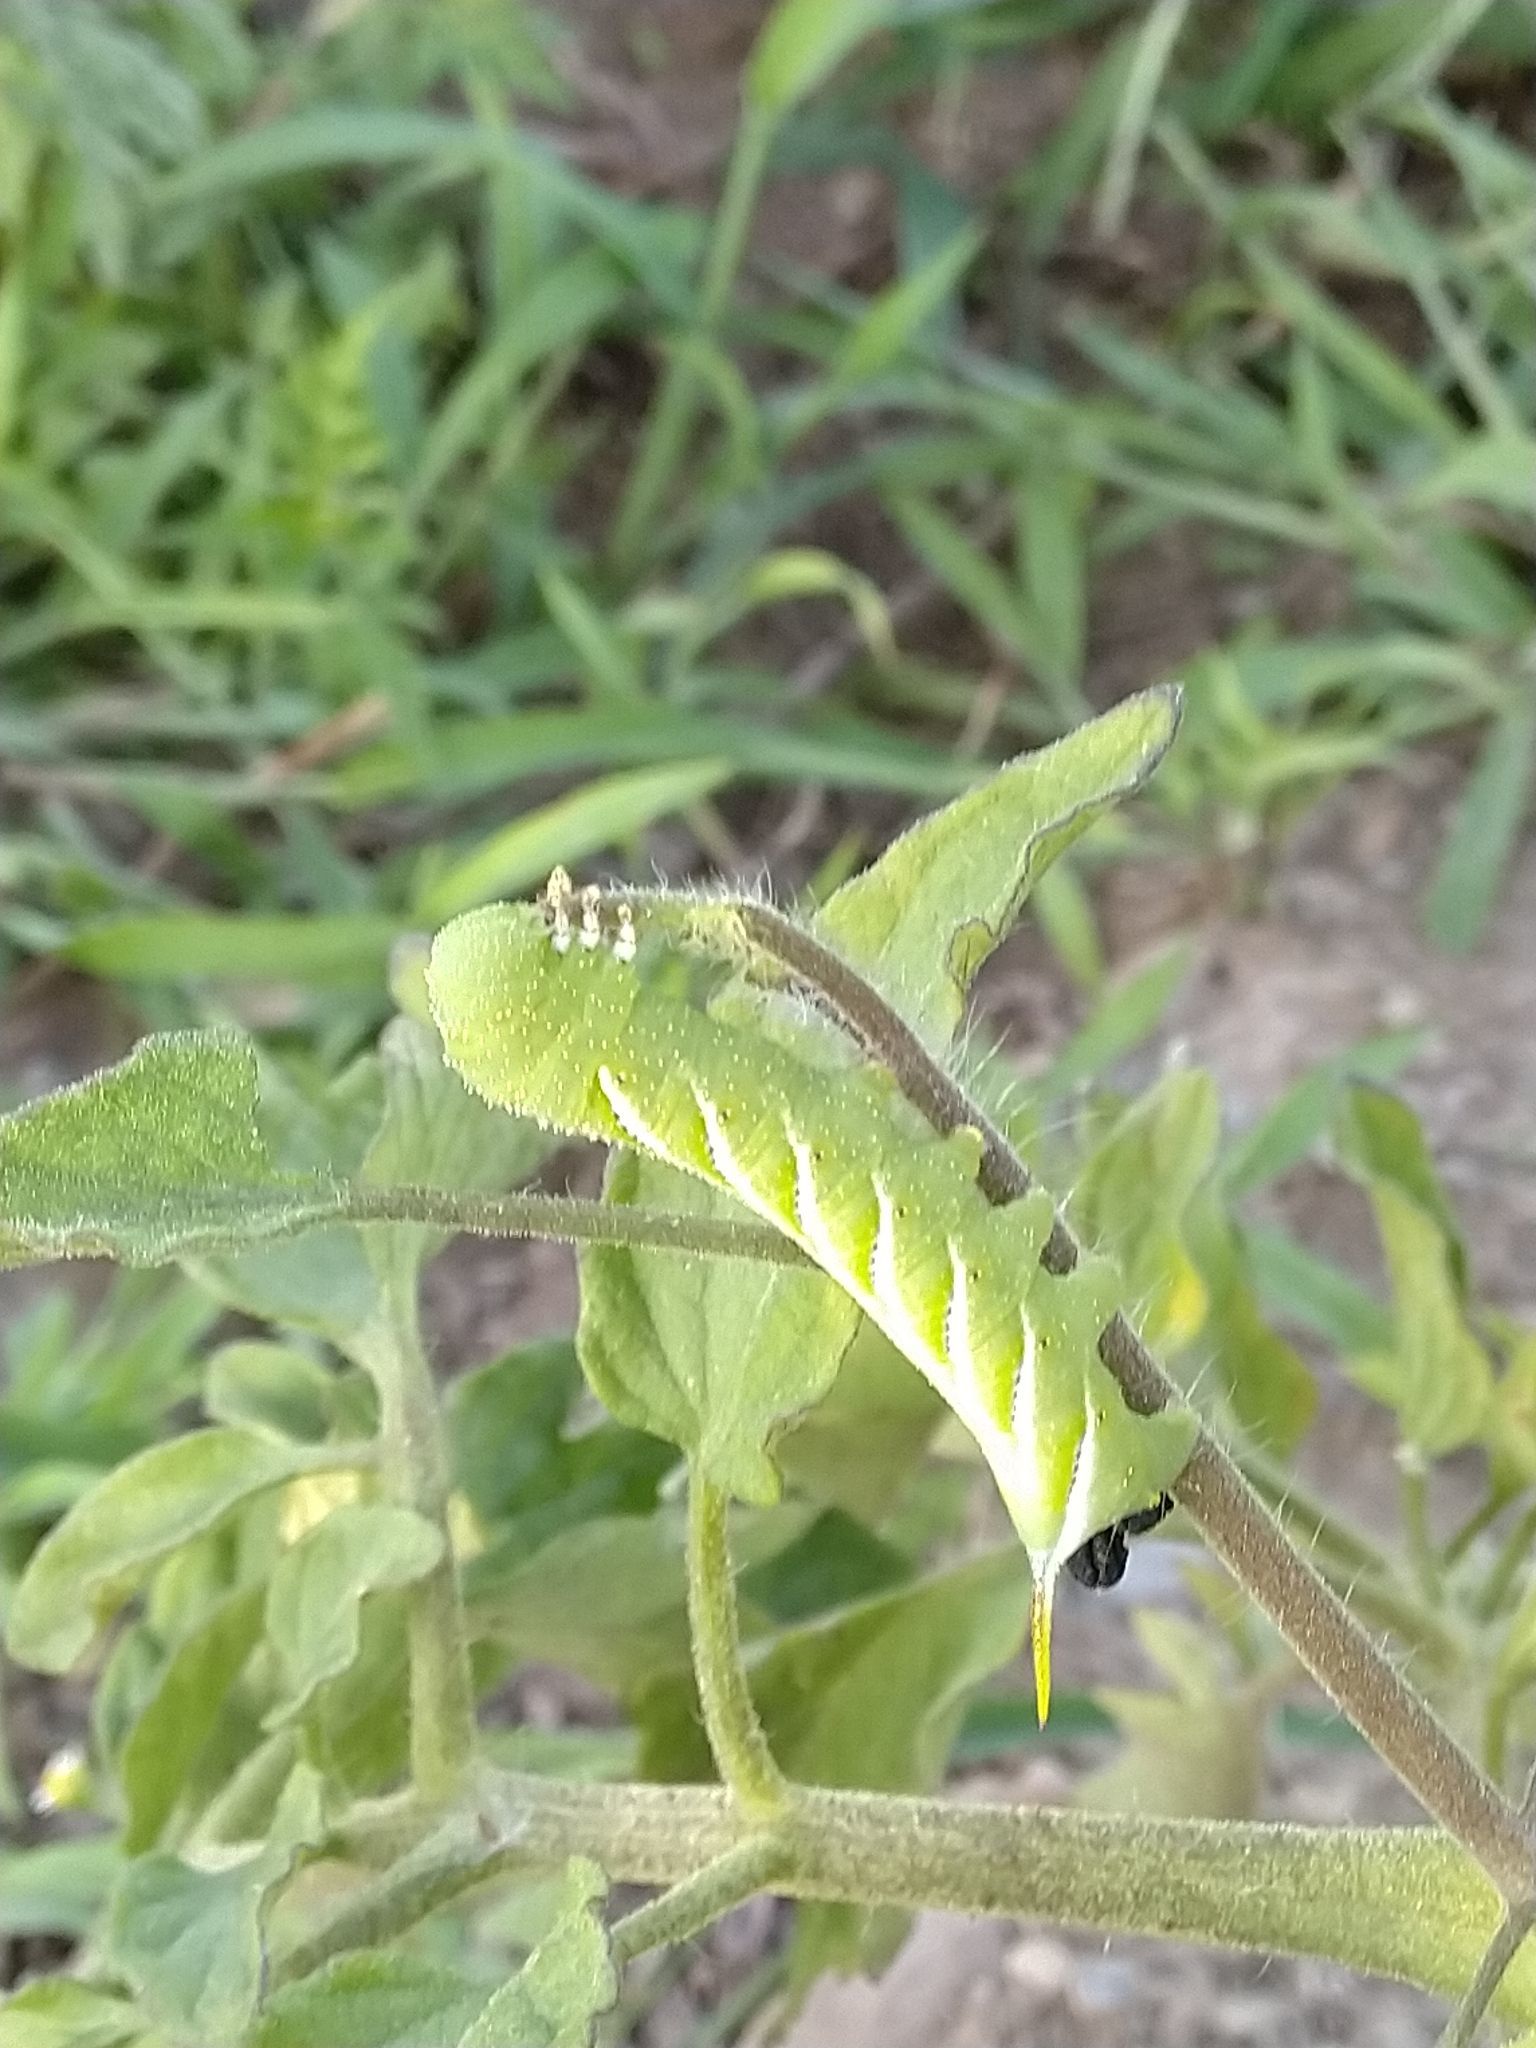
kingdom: Animalia
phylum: Arthropoda
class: Insecta
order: Lepidoptera
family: Sphingidae
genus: Manduca
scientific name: Manduca sexta
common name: Carolina sphinx
